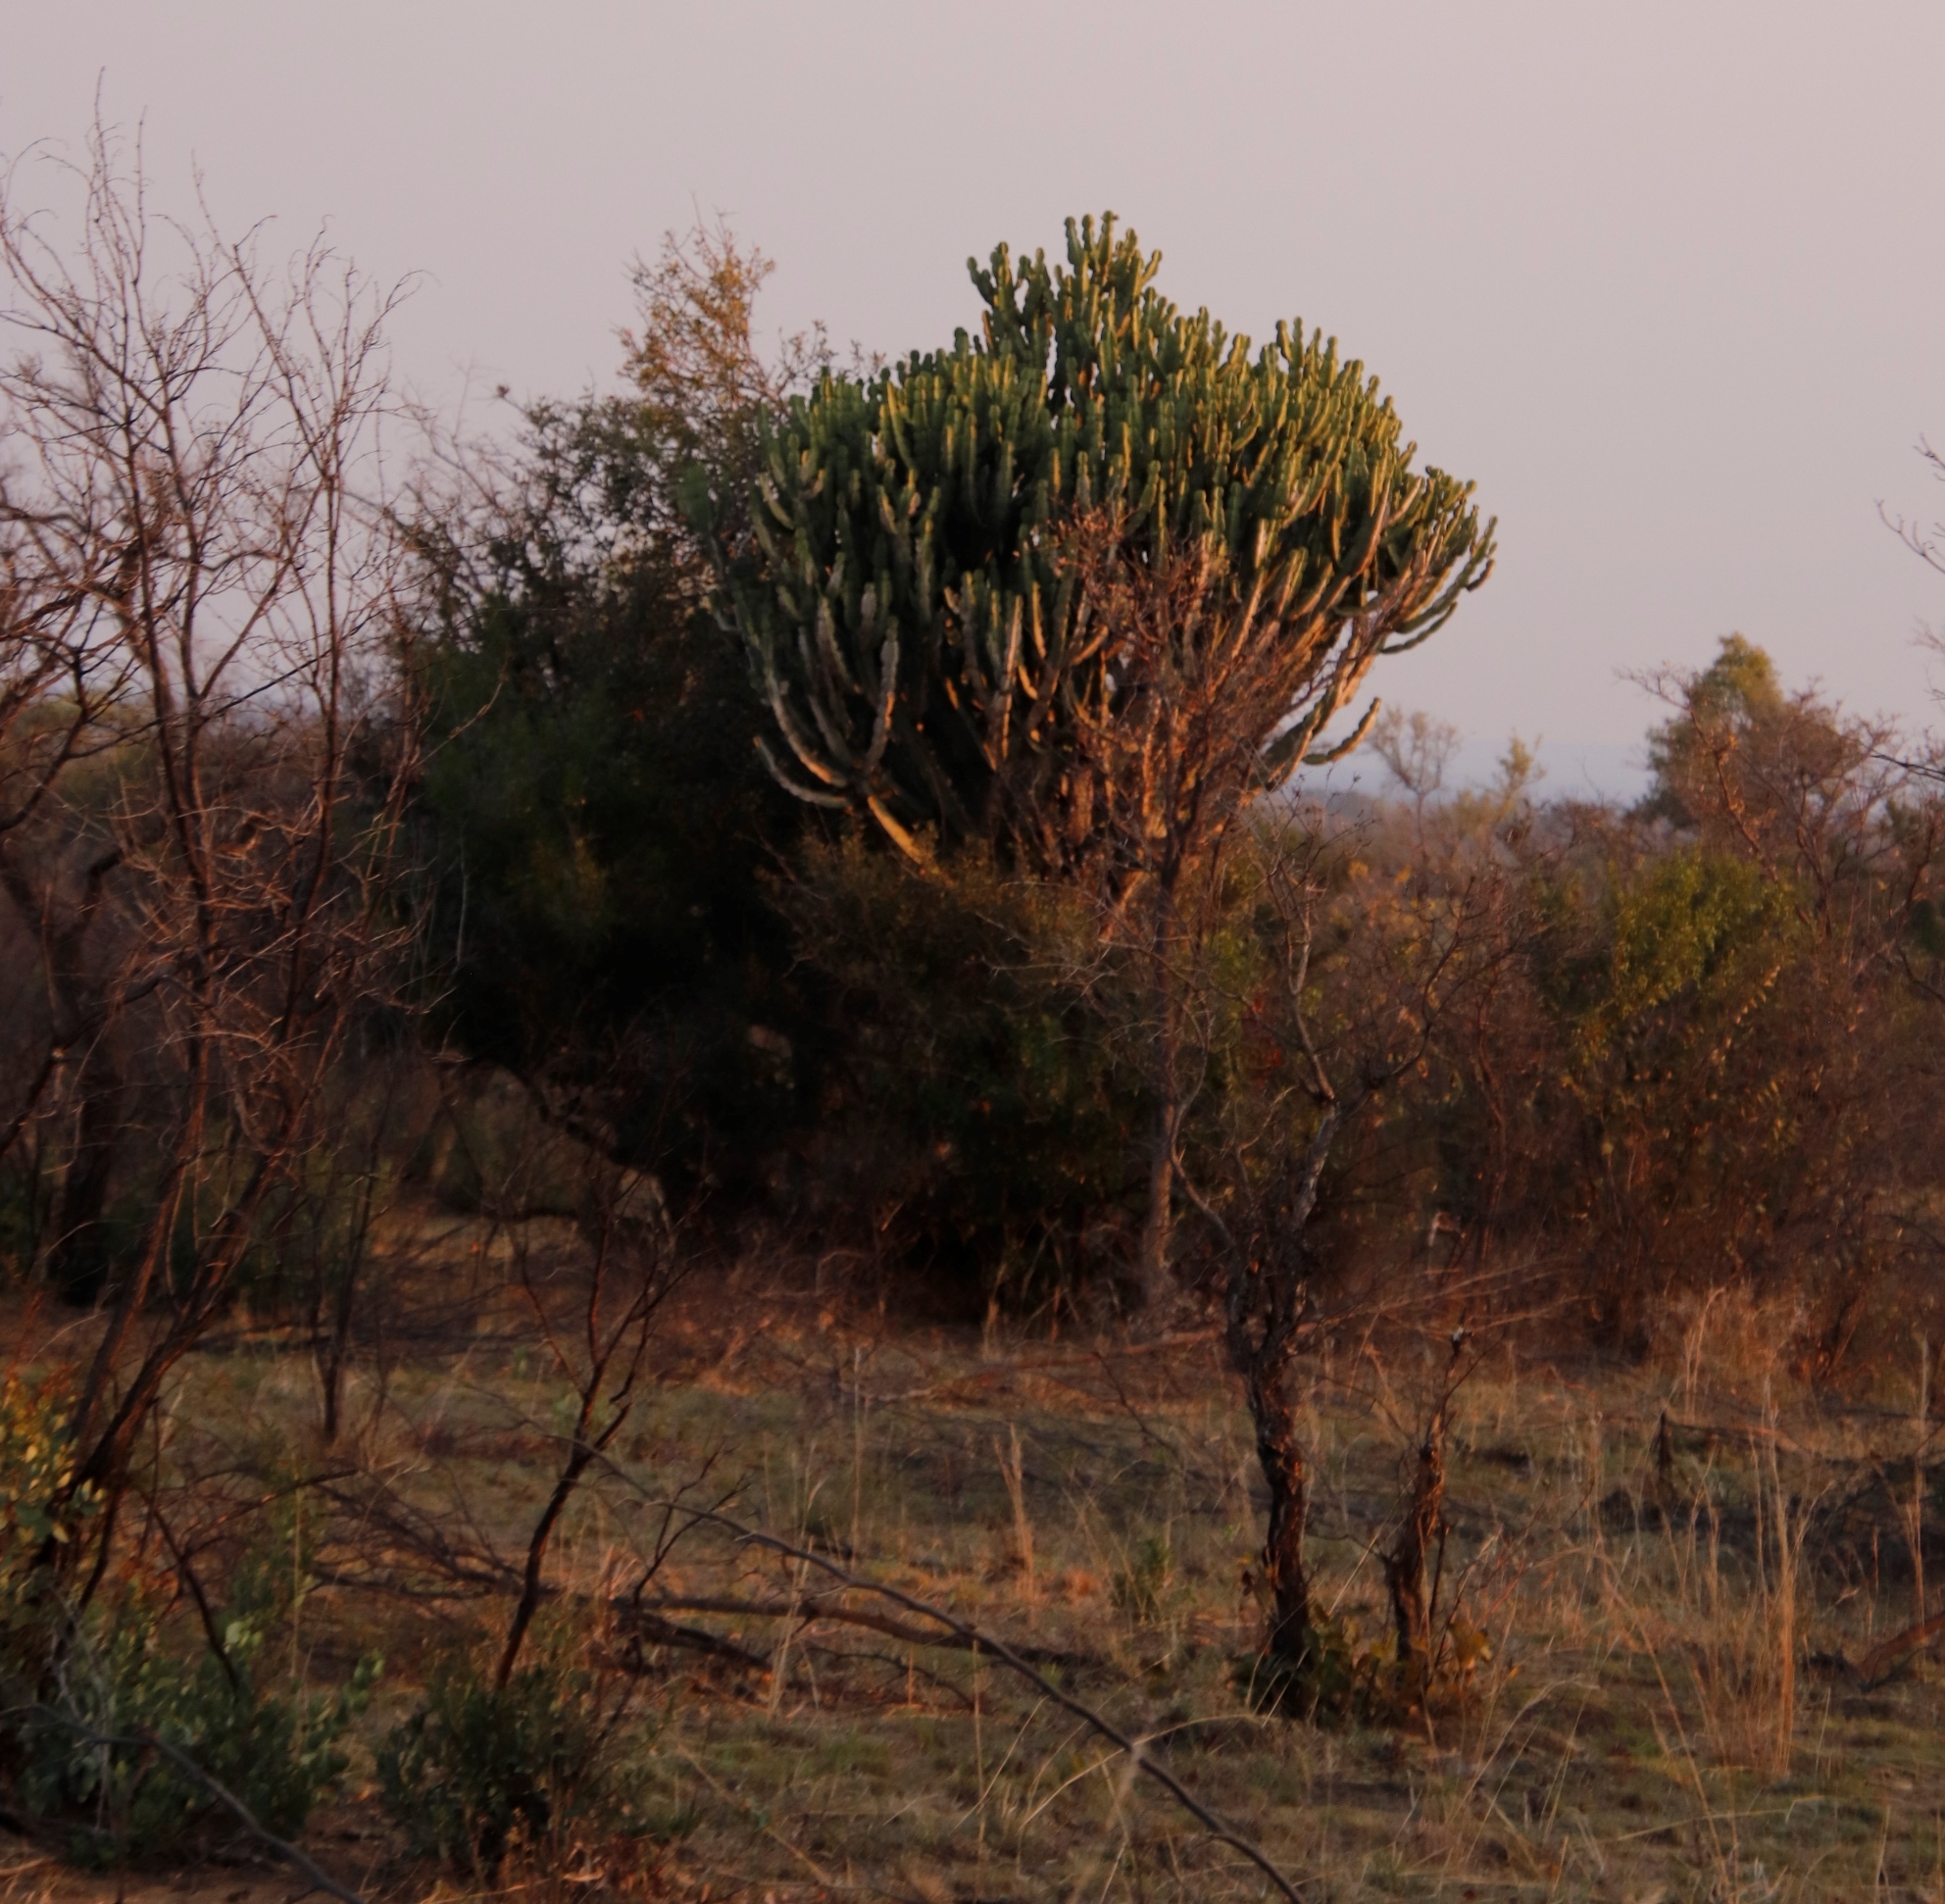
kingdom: Plantae
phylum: Tracheophyta
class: Magnoliopsida
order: Malpighiales
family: Euphorbiaceae
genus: Euphorbia
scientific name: Euphorbia ingens
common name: Cactus spurge
